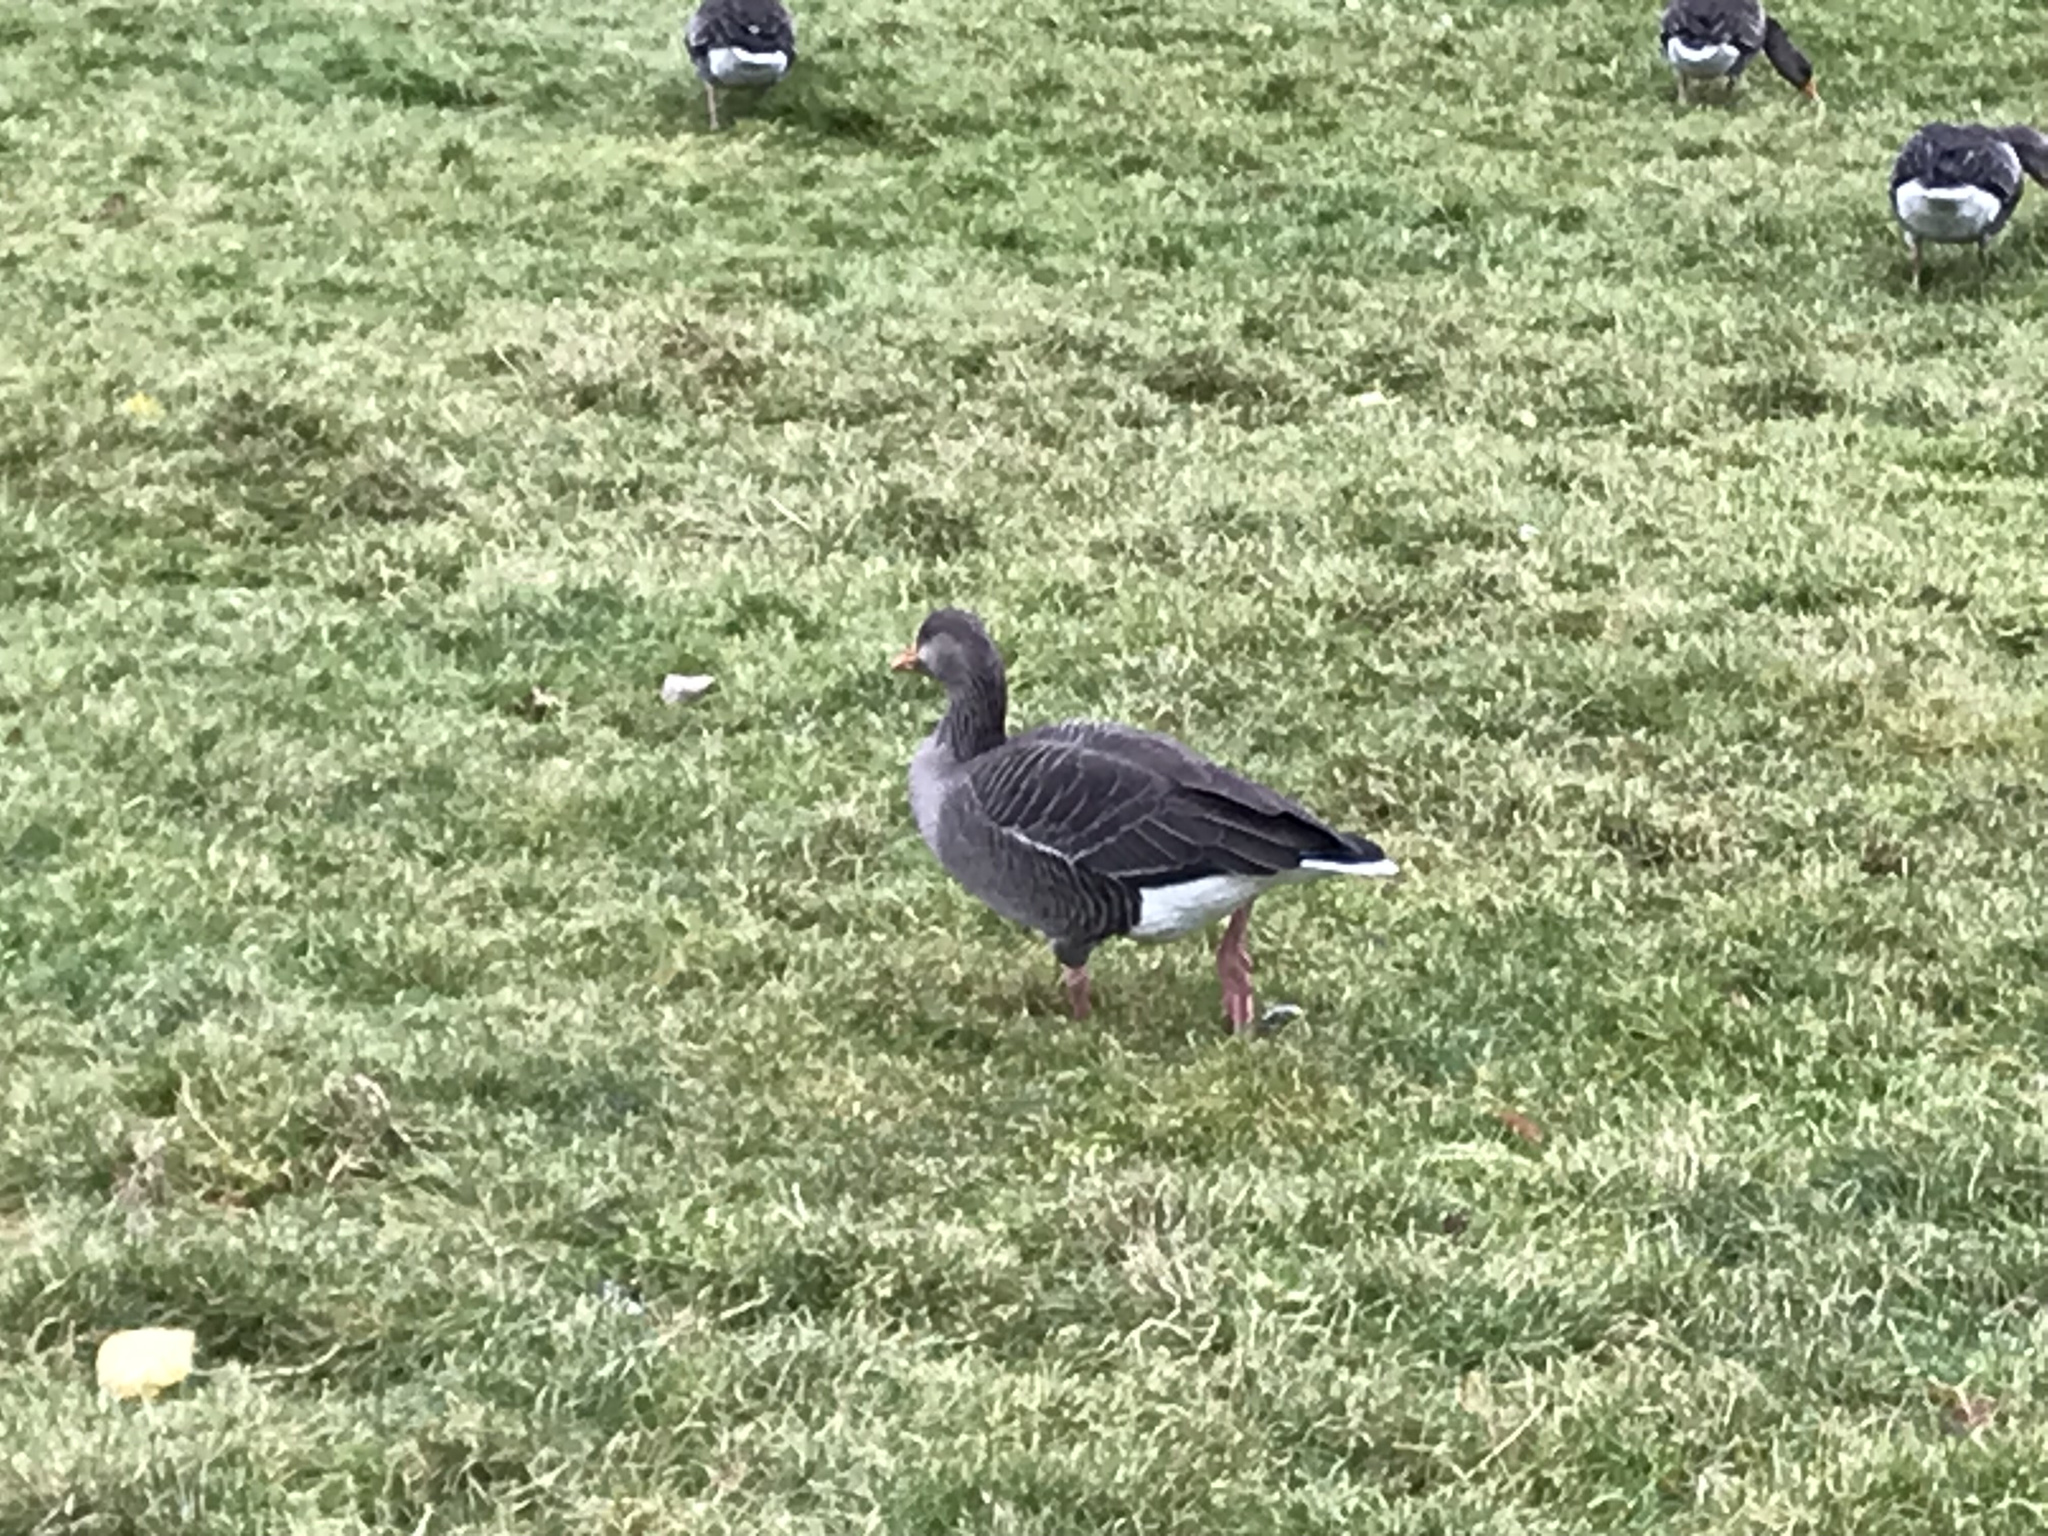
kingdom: Animalia
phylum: Chordata
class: Aves
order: Anseriformes
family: Anatidae
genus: Anser
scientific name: Anser anser
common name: Greylag goose
